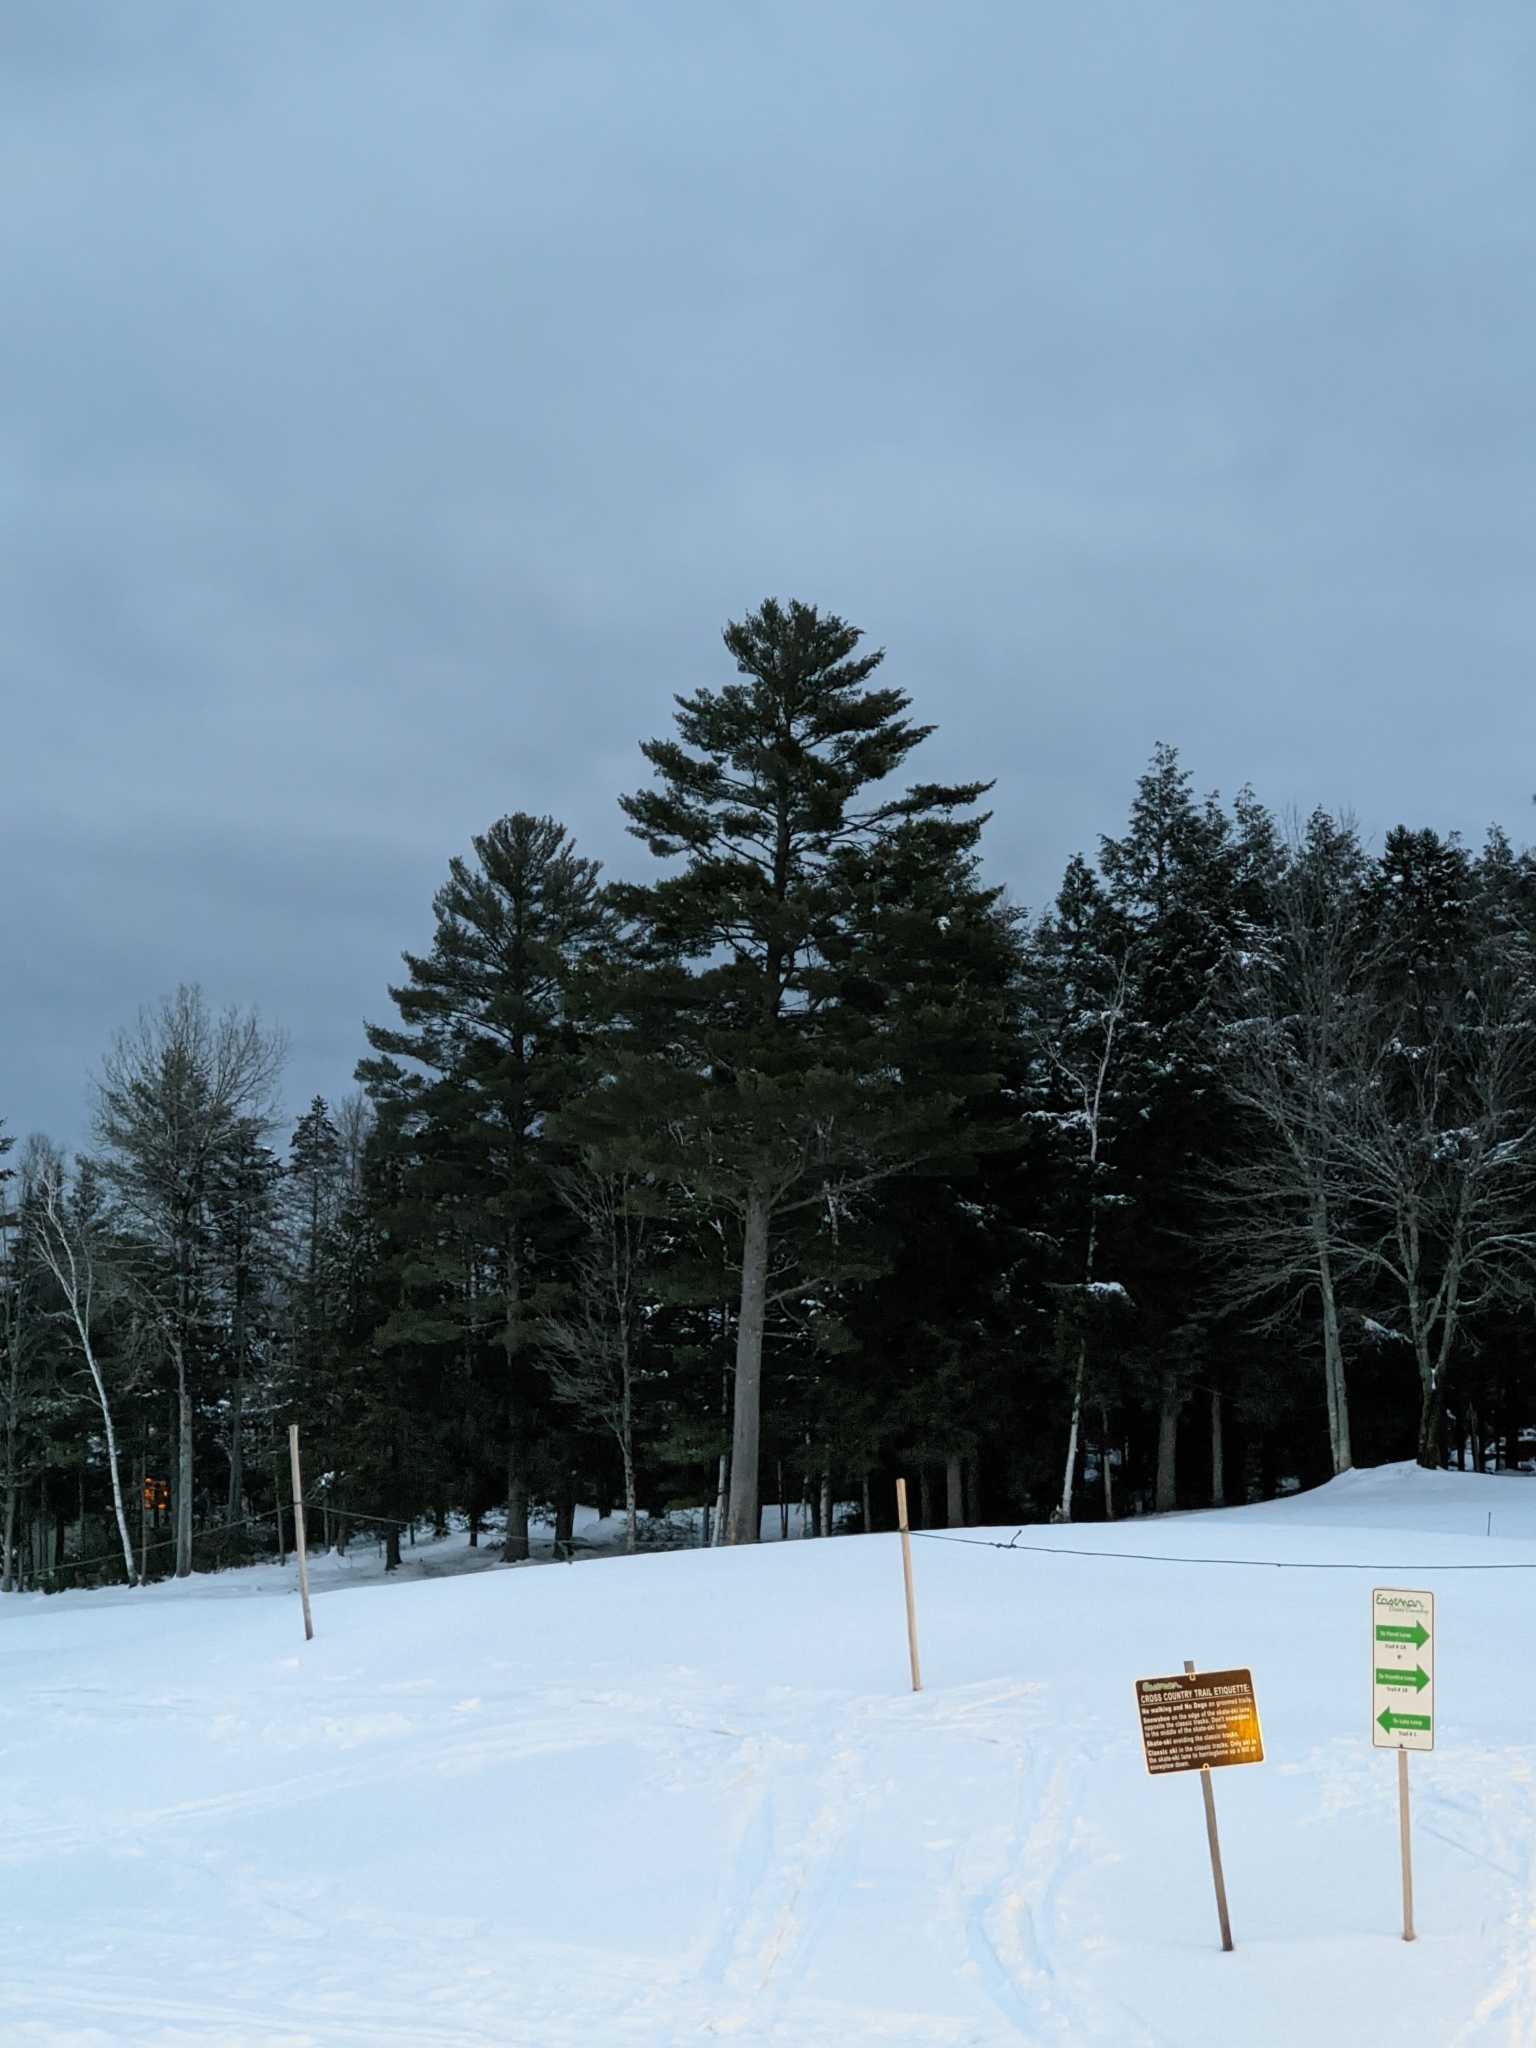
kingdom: Plantae
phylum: Tracheophyta
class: Pinopsida
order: Pinales
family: Pinaceae
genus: Pinus
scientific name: Pinus strobus
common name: Weymouth pine
